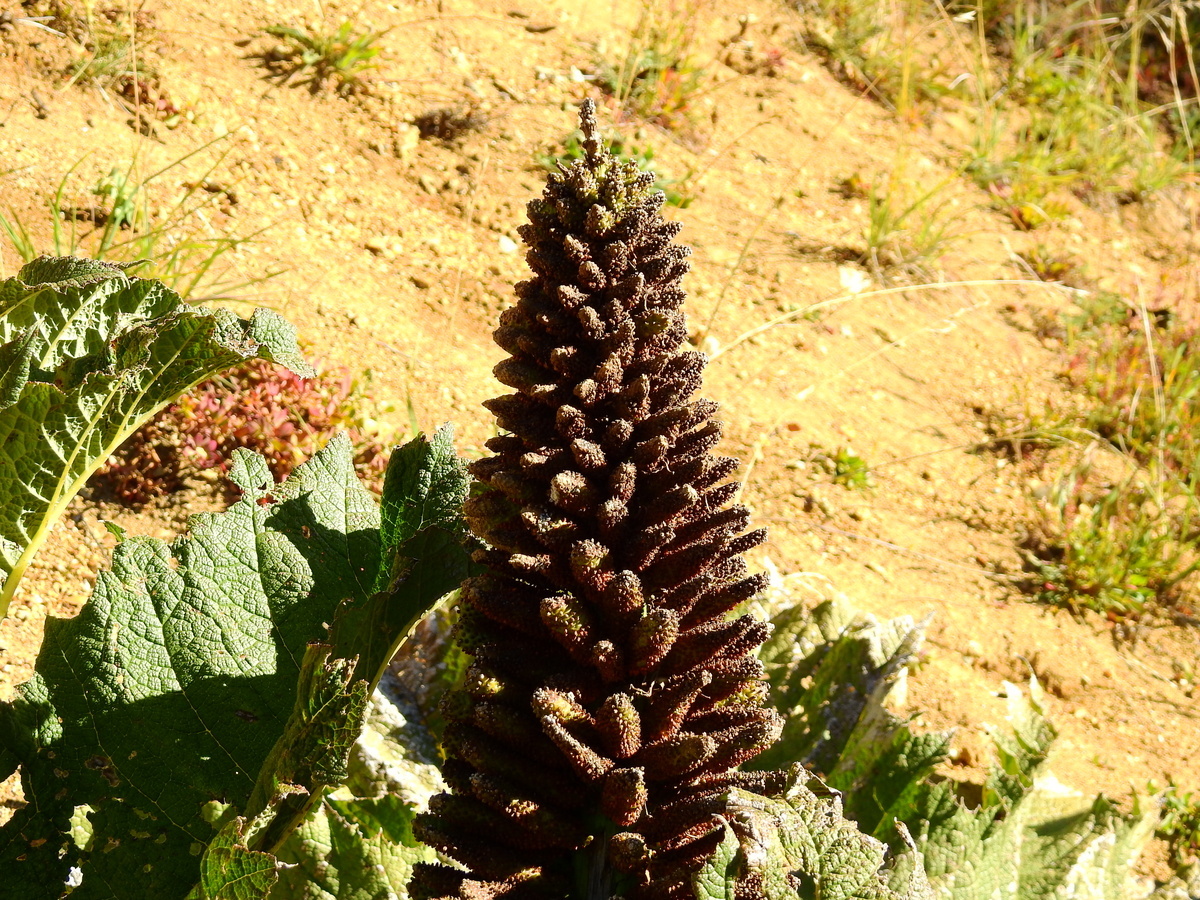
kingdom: Plantae
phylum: Tracheophyta
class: Magnoliopsida
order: Gunnerales
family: Gunneraceae
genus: Gunnera
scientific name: Gunnera tinctoria
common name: Giant-rhubarb
